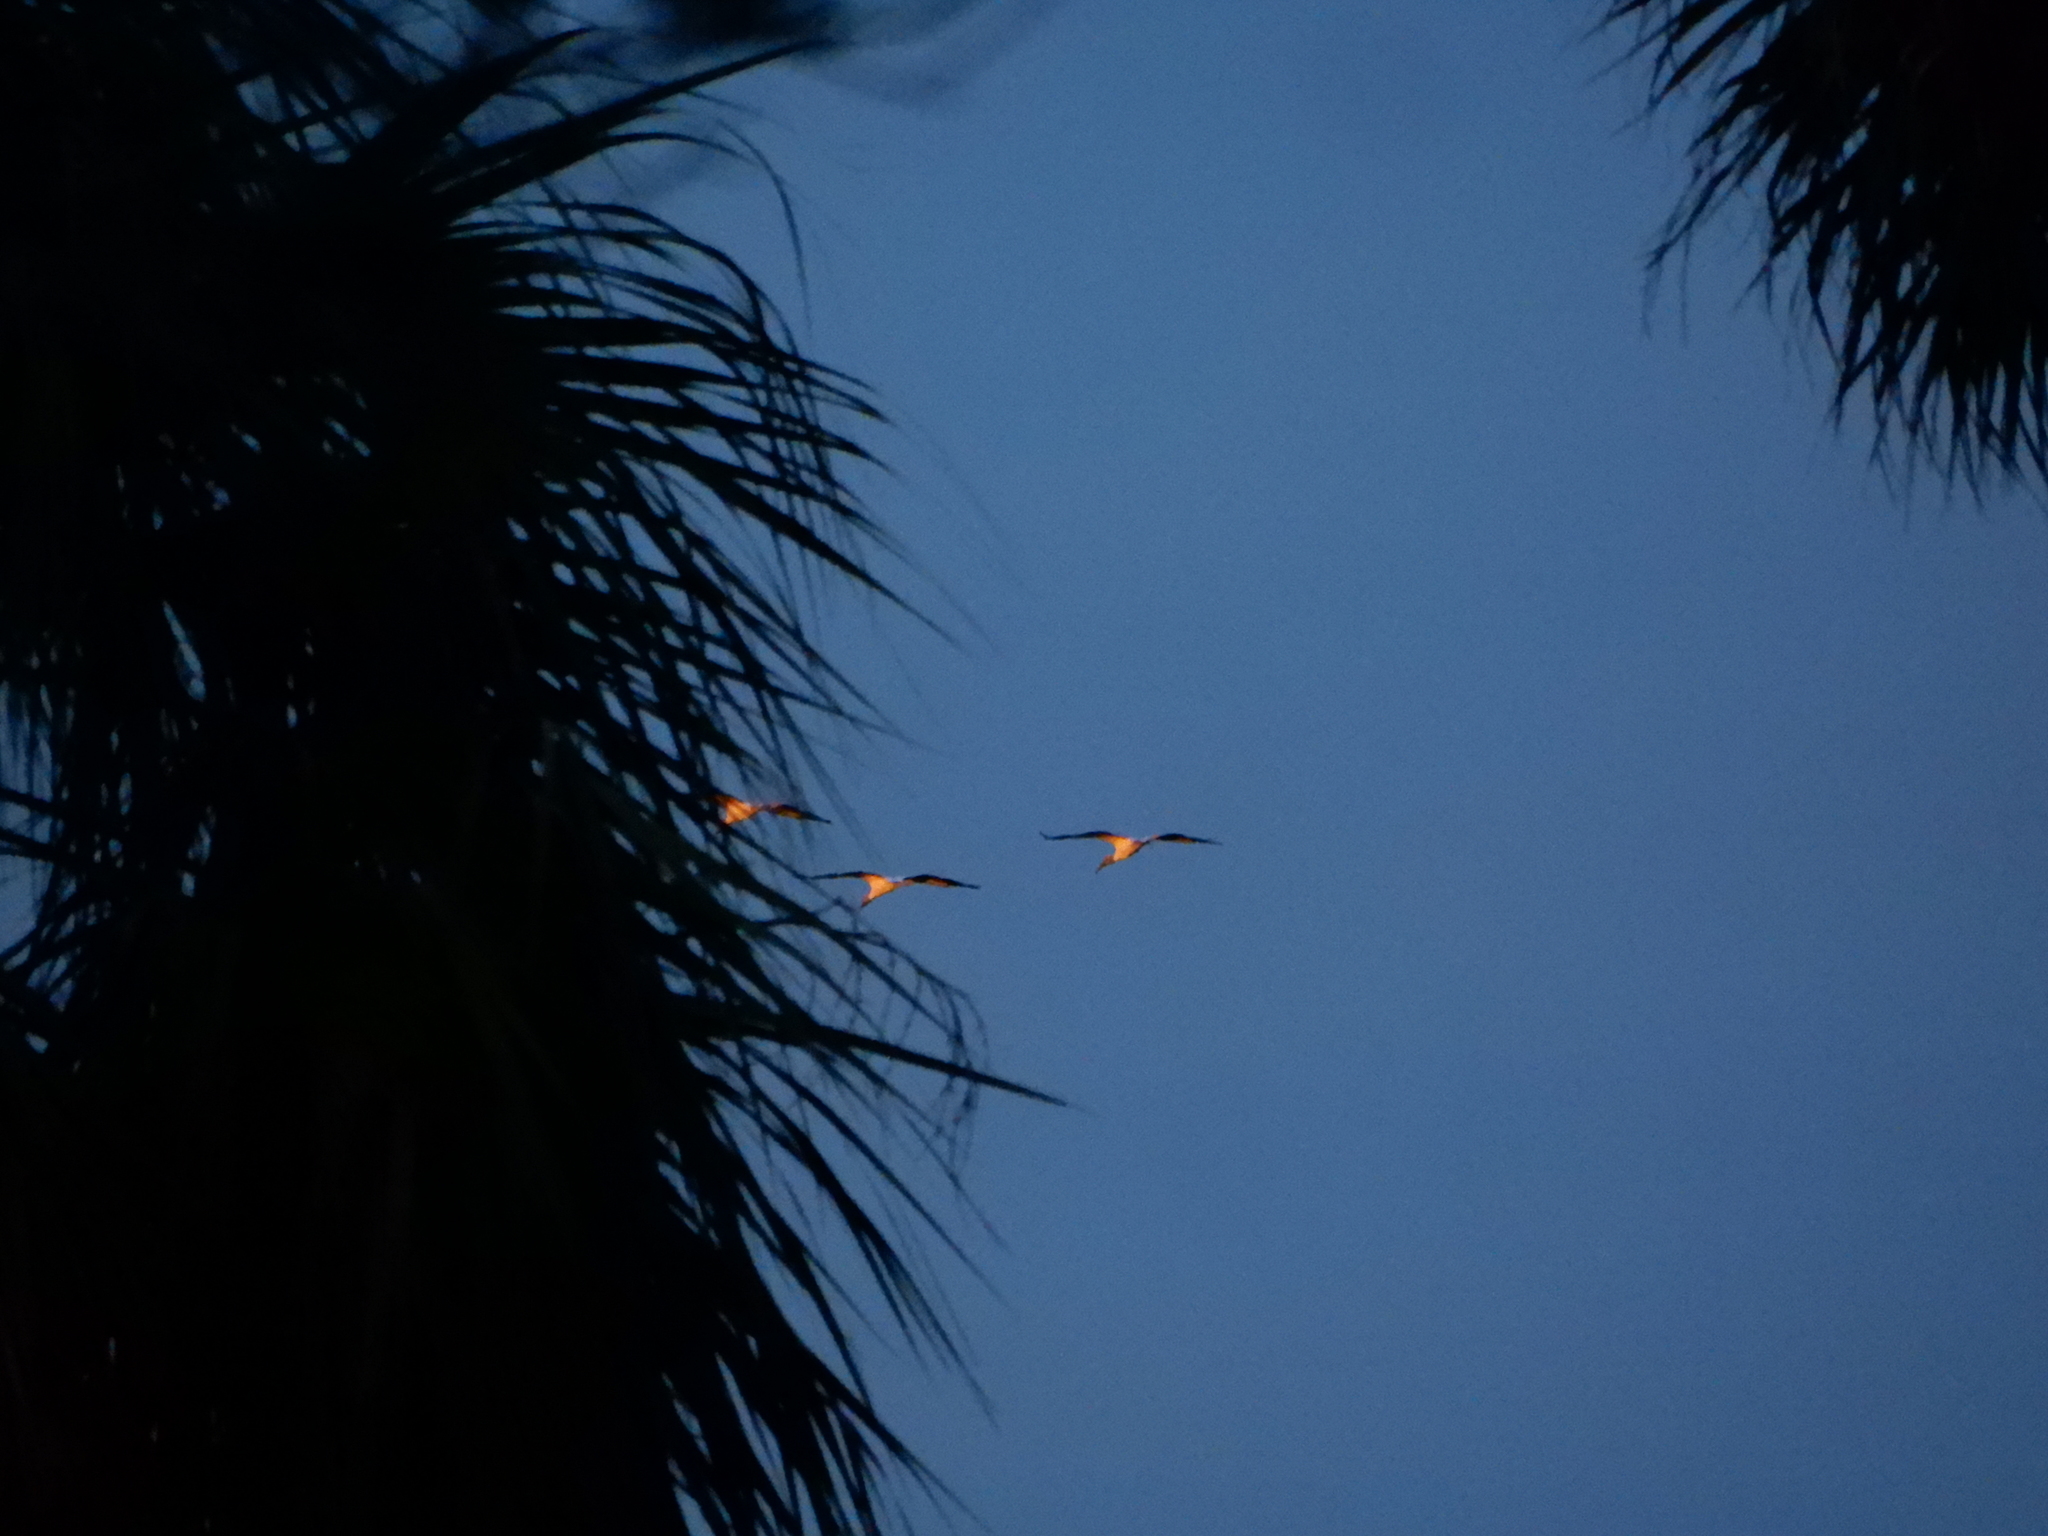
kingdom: Animalia
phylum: Chordata
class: Aves
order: Ciconiiformes
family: Ciconiidae
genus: Mycteria
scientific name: Mycteria americana
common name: Wood stork
